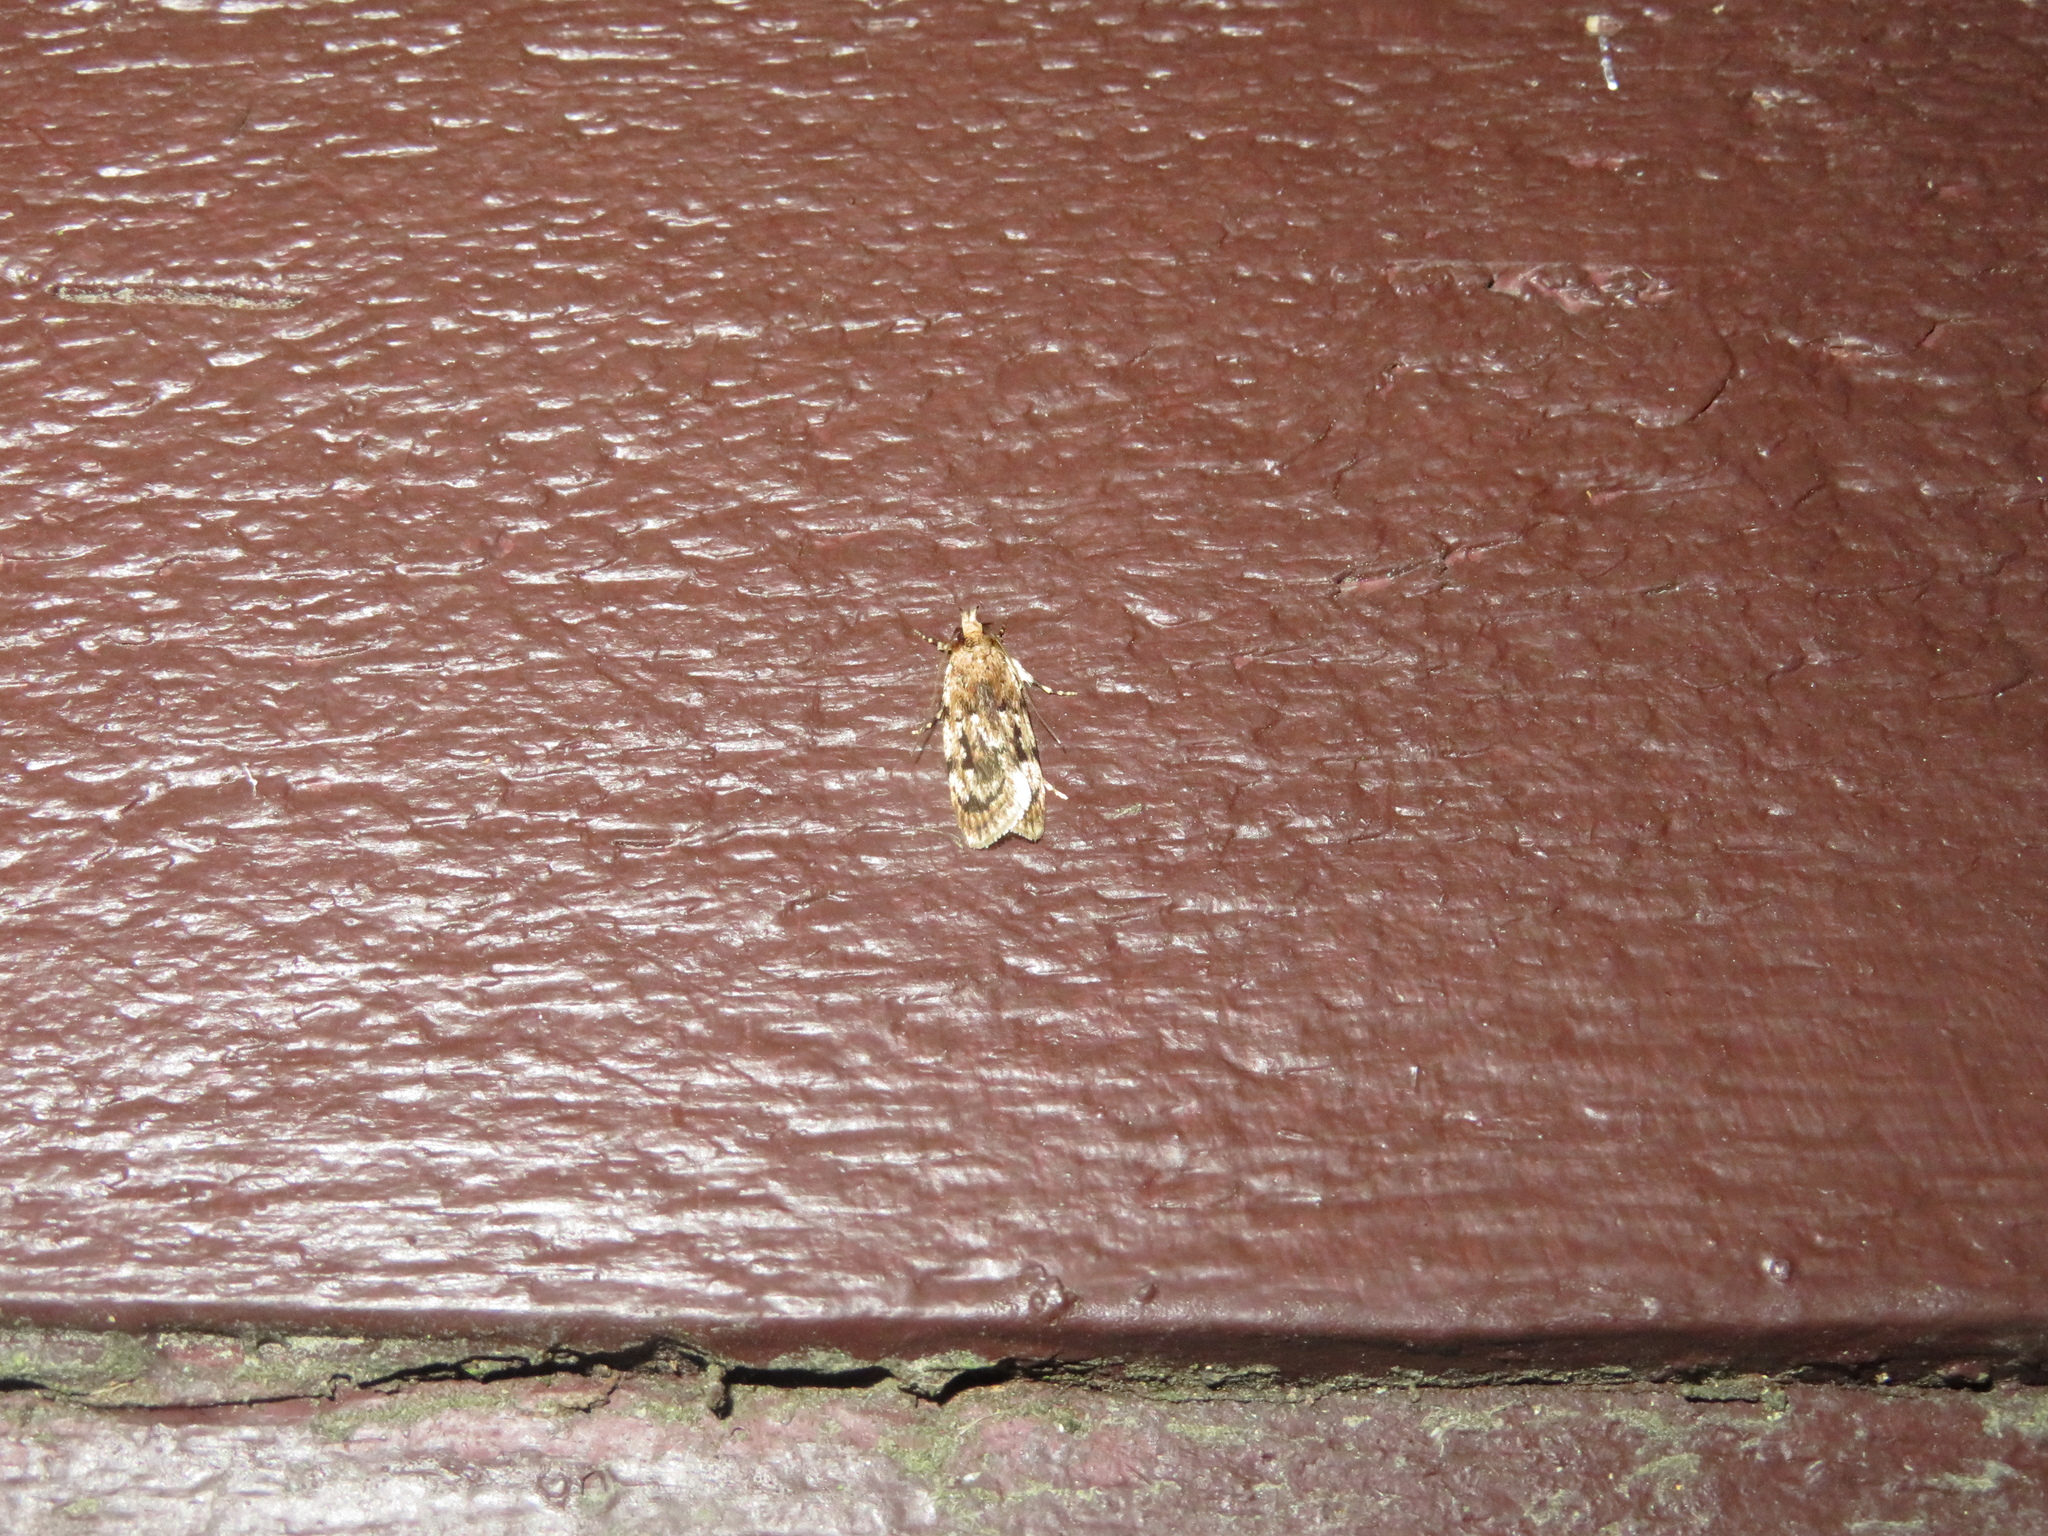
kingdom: Animalia
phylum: Arthropoda
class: Insecta
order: Lepidoptera
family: Oecophoridae
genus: Barea
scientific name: Barea exarcha
